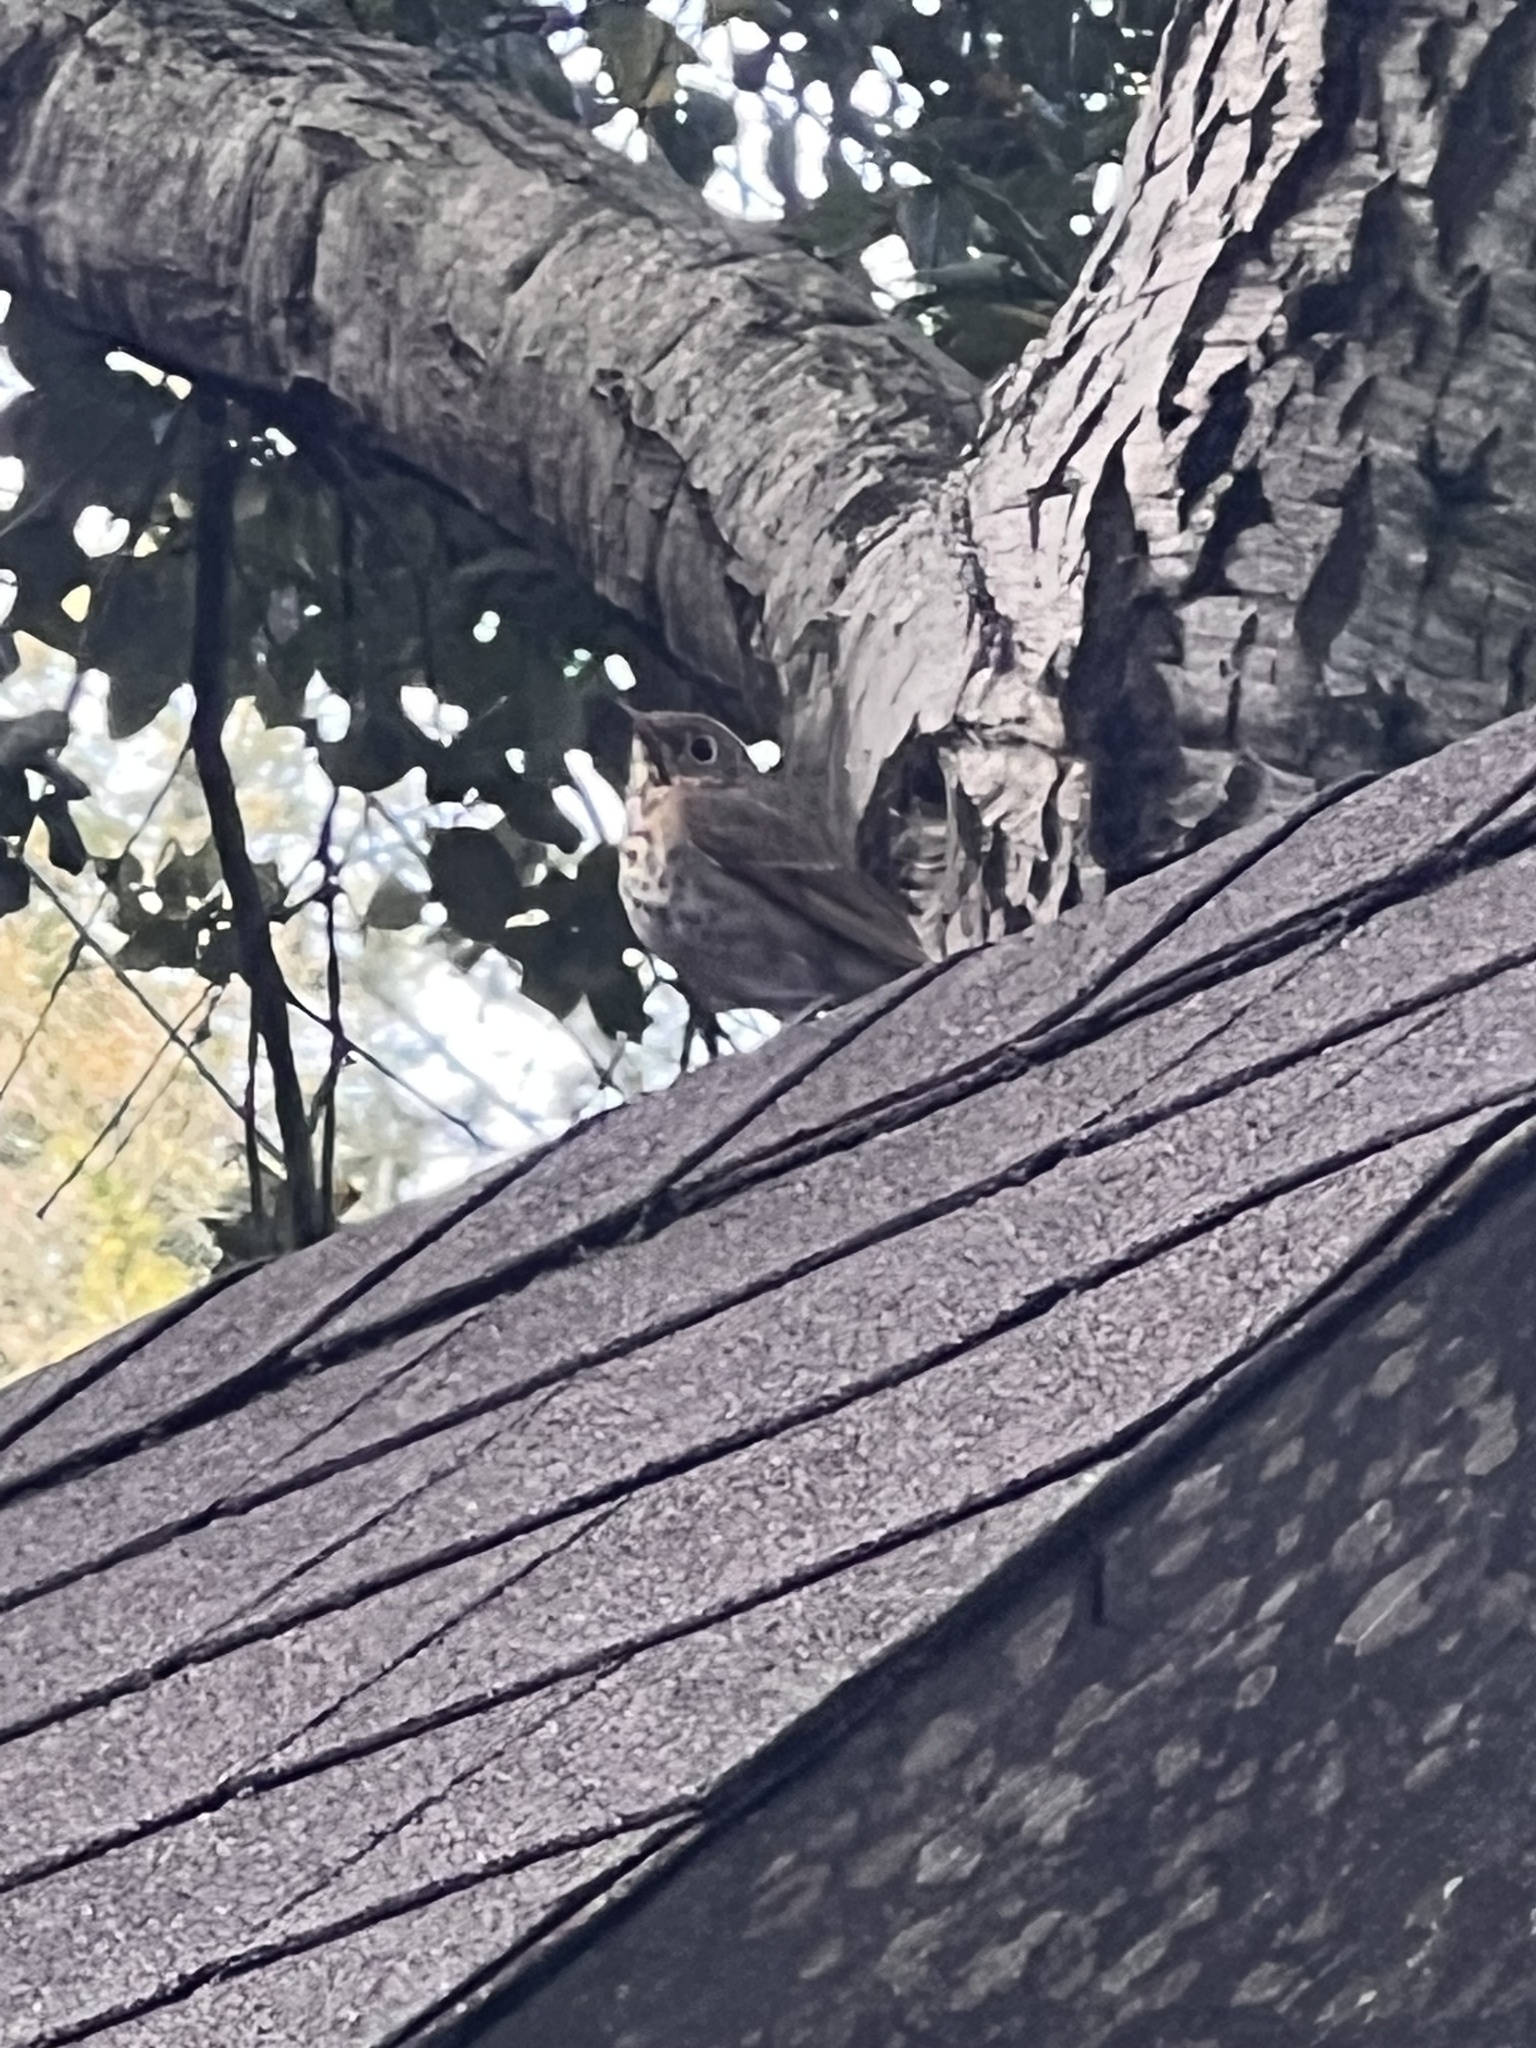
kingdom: Animalia
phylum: Chordata
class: Aves
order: Passeriformes
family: Turdidae
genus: Catharus
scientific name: Catharus guttatus
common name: Hermit thrush
